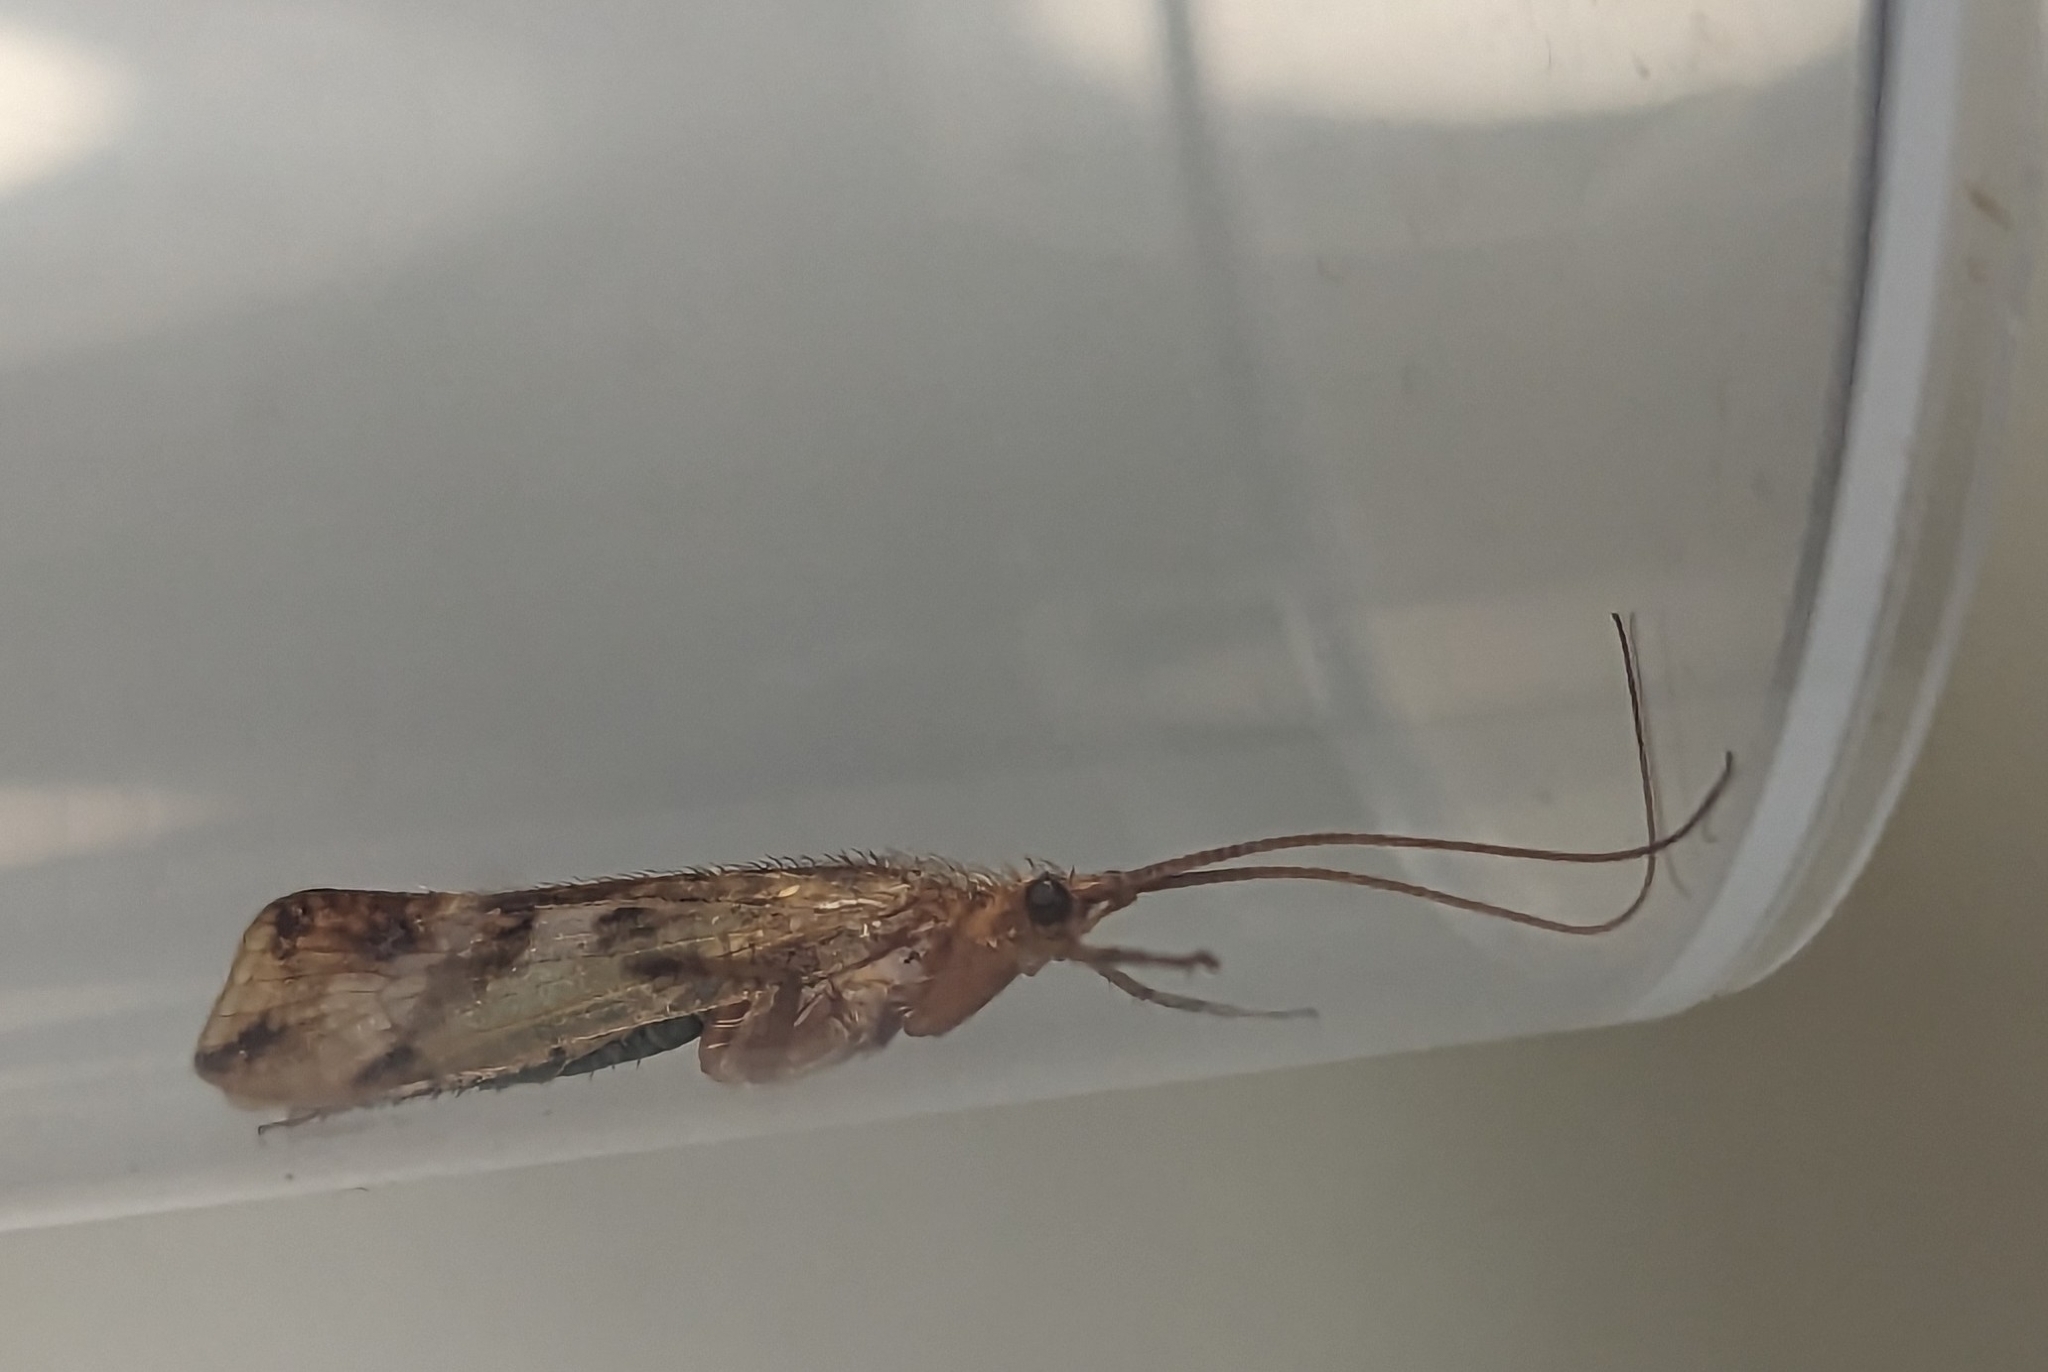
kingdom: Animalia
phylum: Arthropoda
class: Insecta
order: Trichoptera
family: Limnephilidae
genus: Limnephilus
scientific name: Limnephilus lunatus
